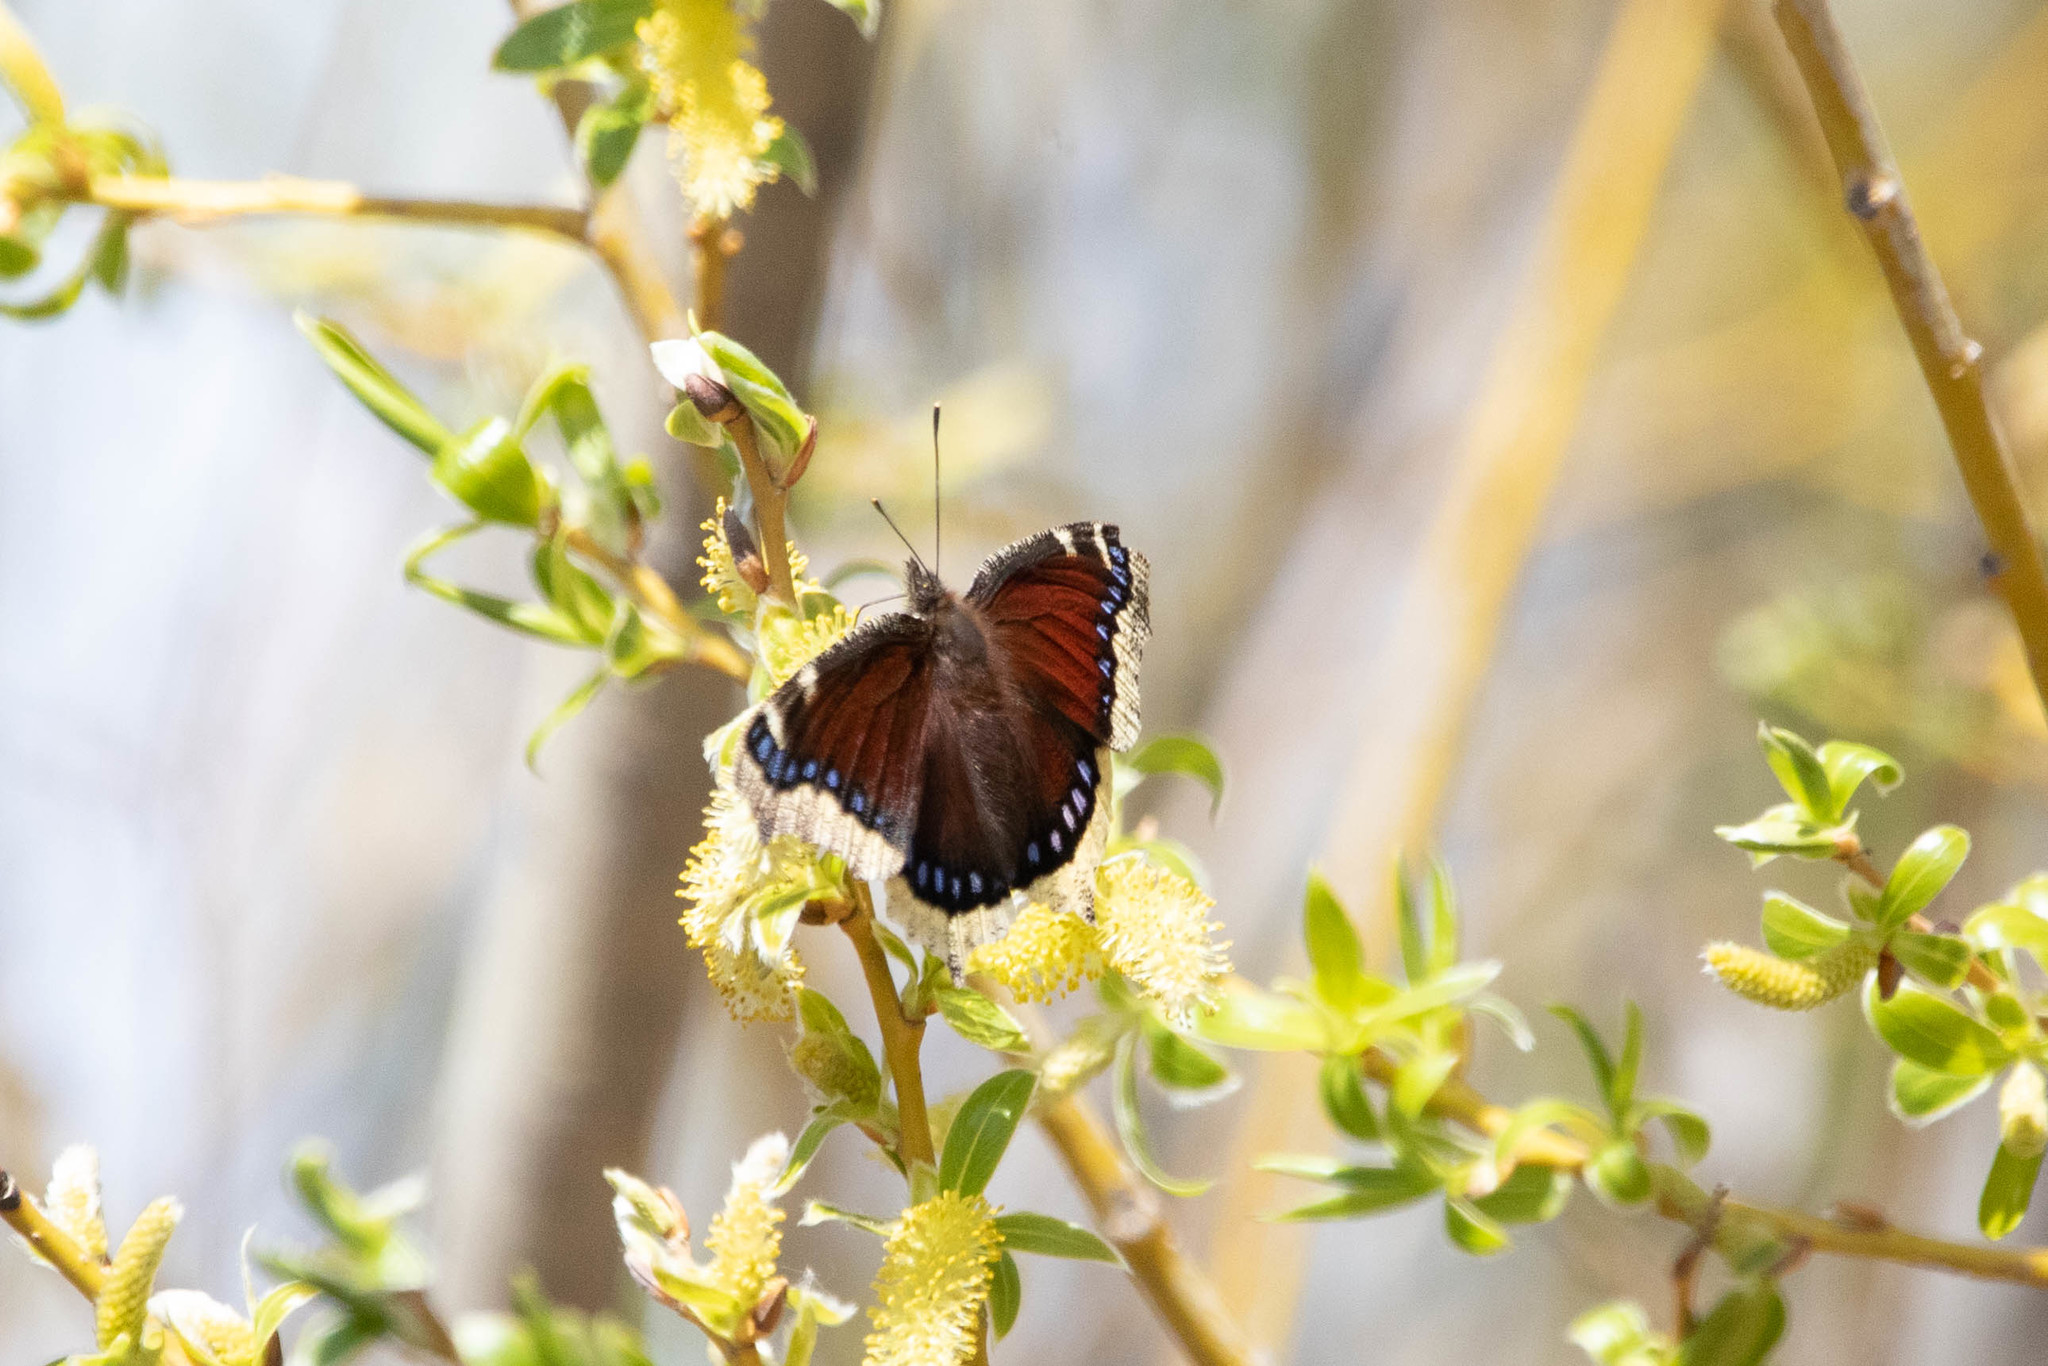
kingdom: Animalia
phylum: Arthropoda
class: Insecta
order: Lepidoptera
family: Nymphalidae
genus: Nymphalis
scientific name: Nymphalis antiopa
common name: Camberwell beauty
